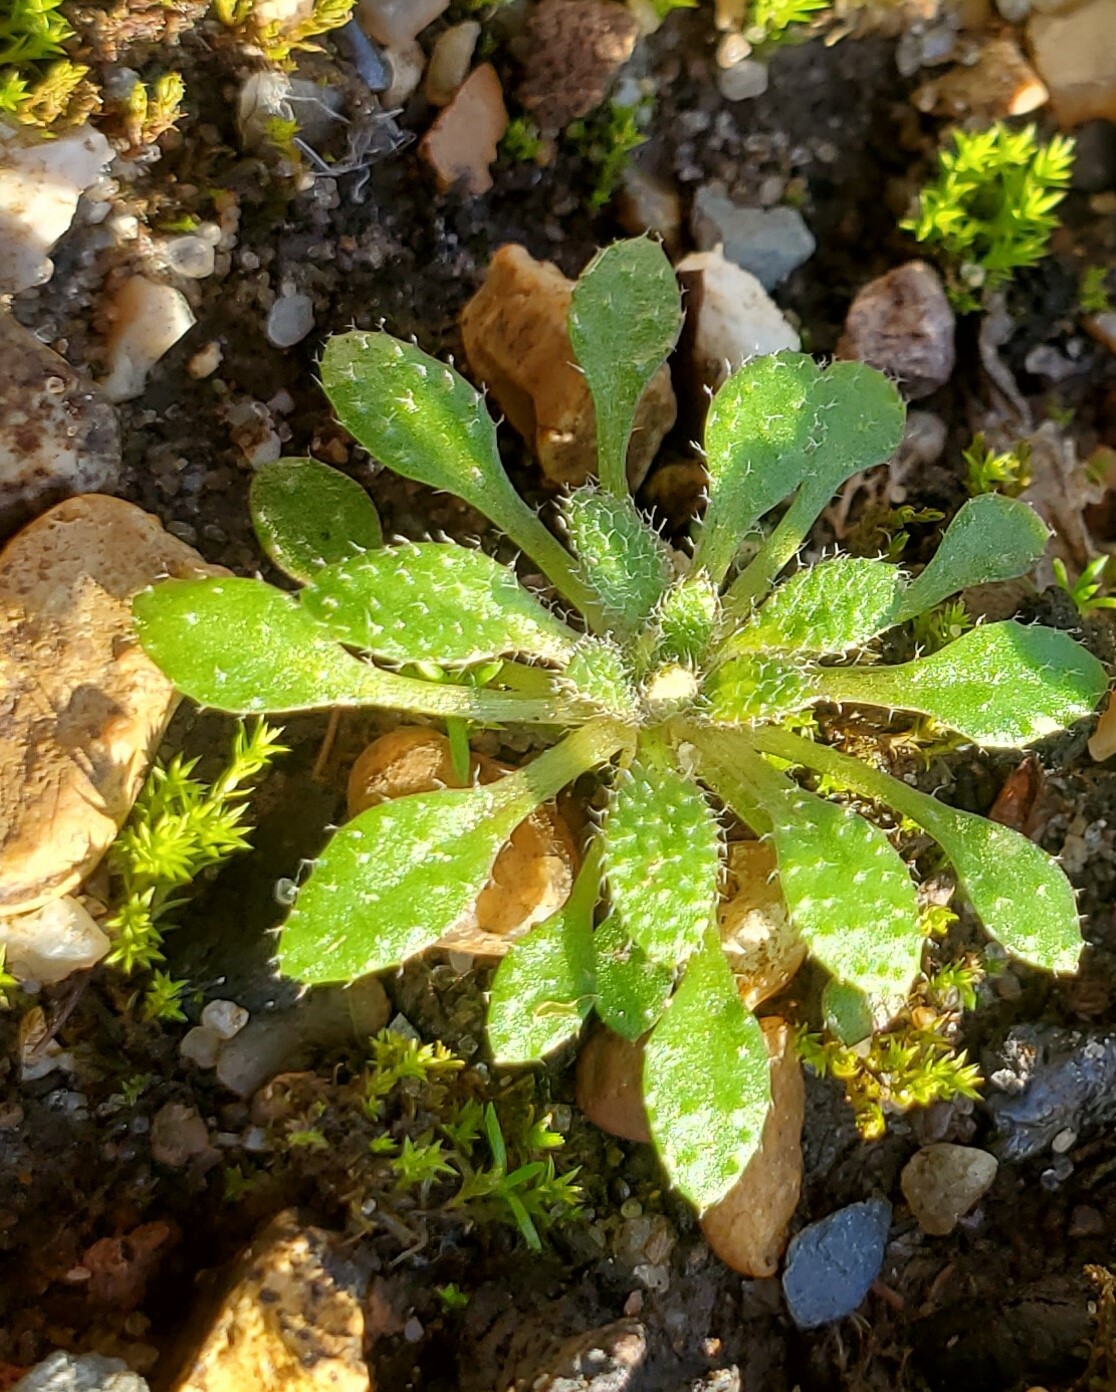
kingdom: Plantae
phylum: Tracheophyta
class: Magnoliopsida
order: Brassicales
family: Brassicaceae
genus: Draba
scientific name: Draba verna
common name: Spring draba
